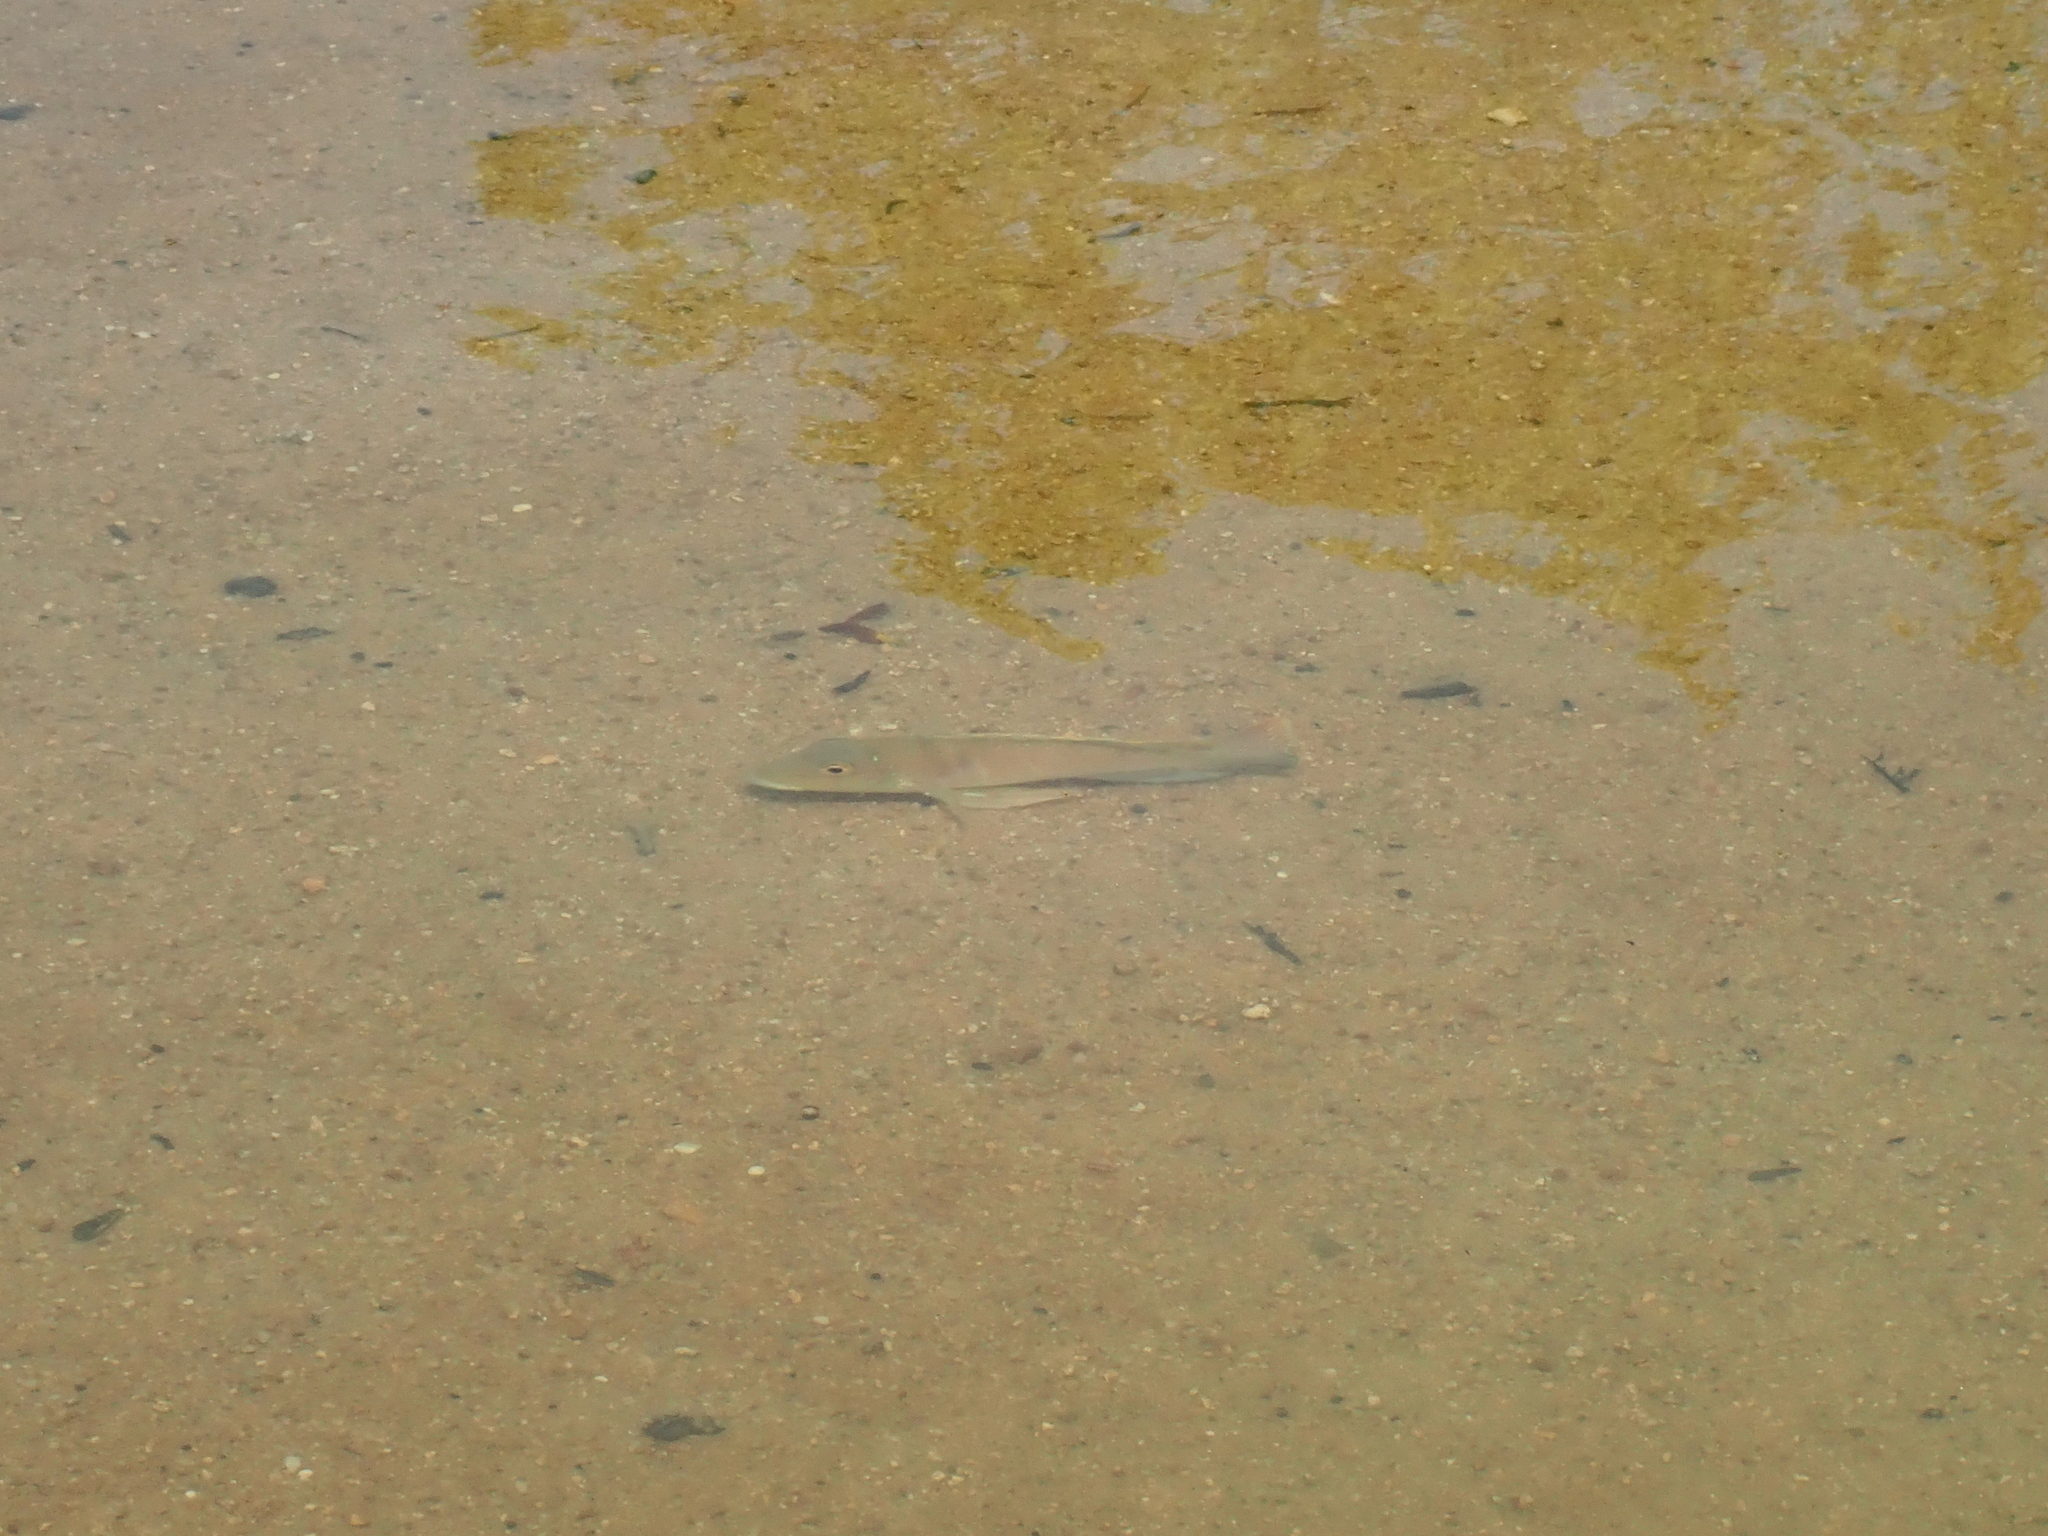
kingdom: Animalia
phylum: Chordata
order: Perciformes
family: Cichlidae
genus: Retroculus
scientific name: Retroculus lapidifer
